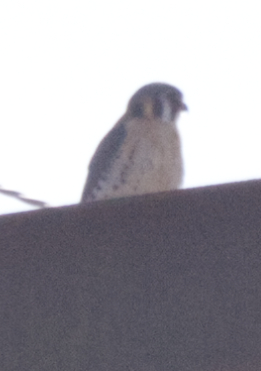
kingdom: Animalia
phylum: Chordata
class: Aves
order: Falconiformes
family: Falconidae
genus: Falco
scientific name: Falco sparverius
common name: American kestrel
